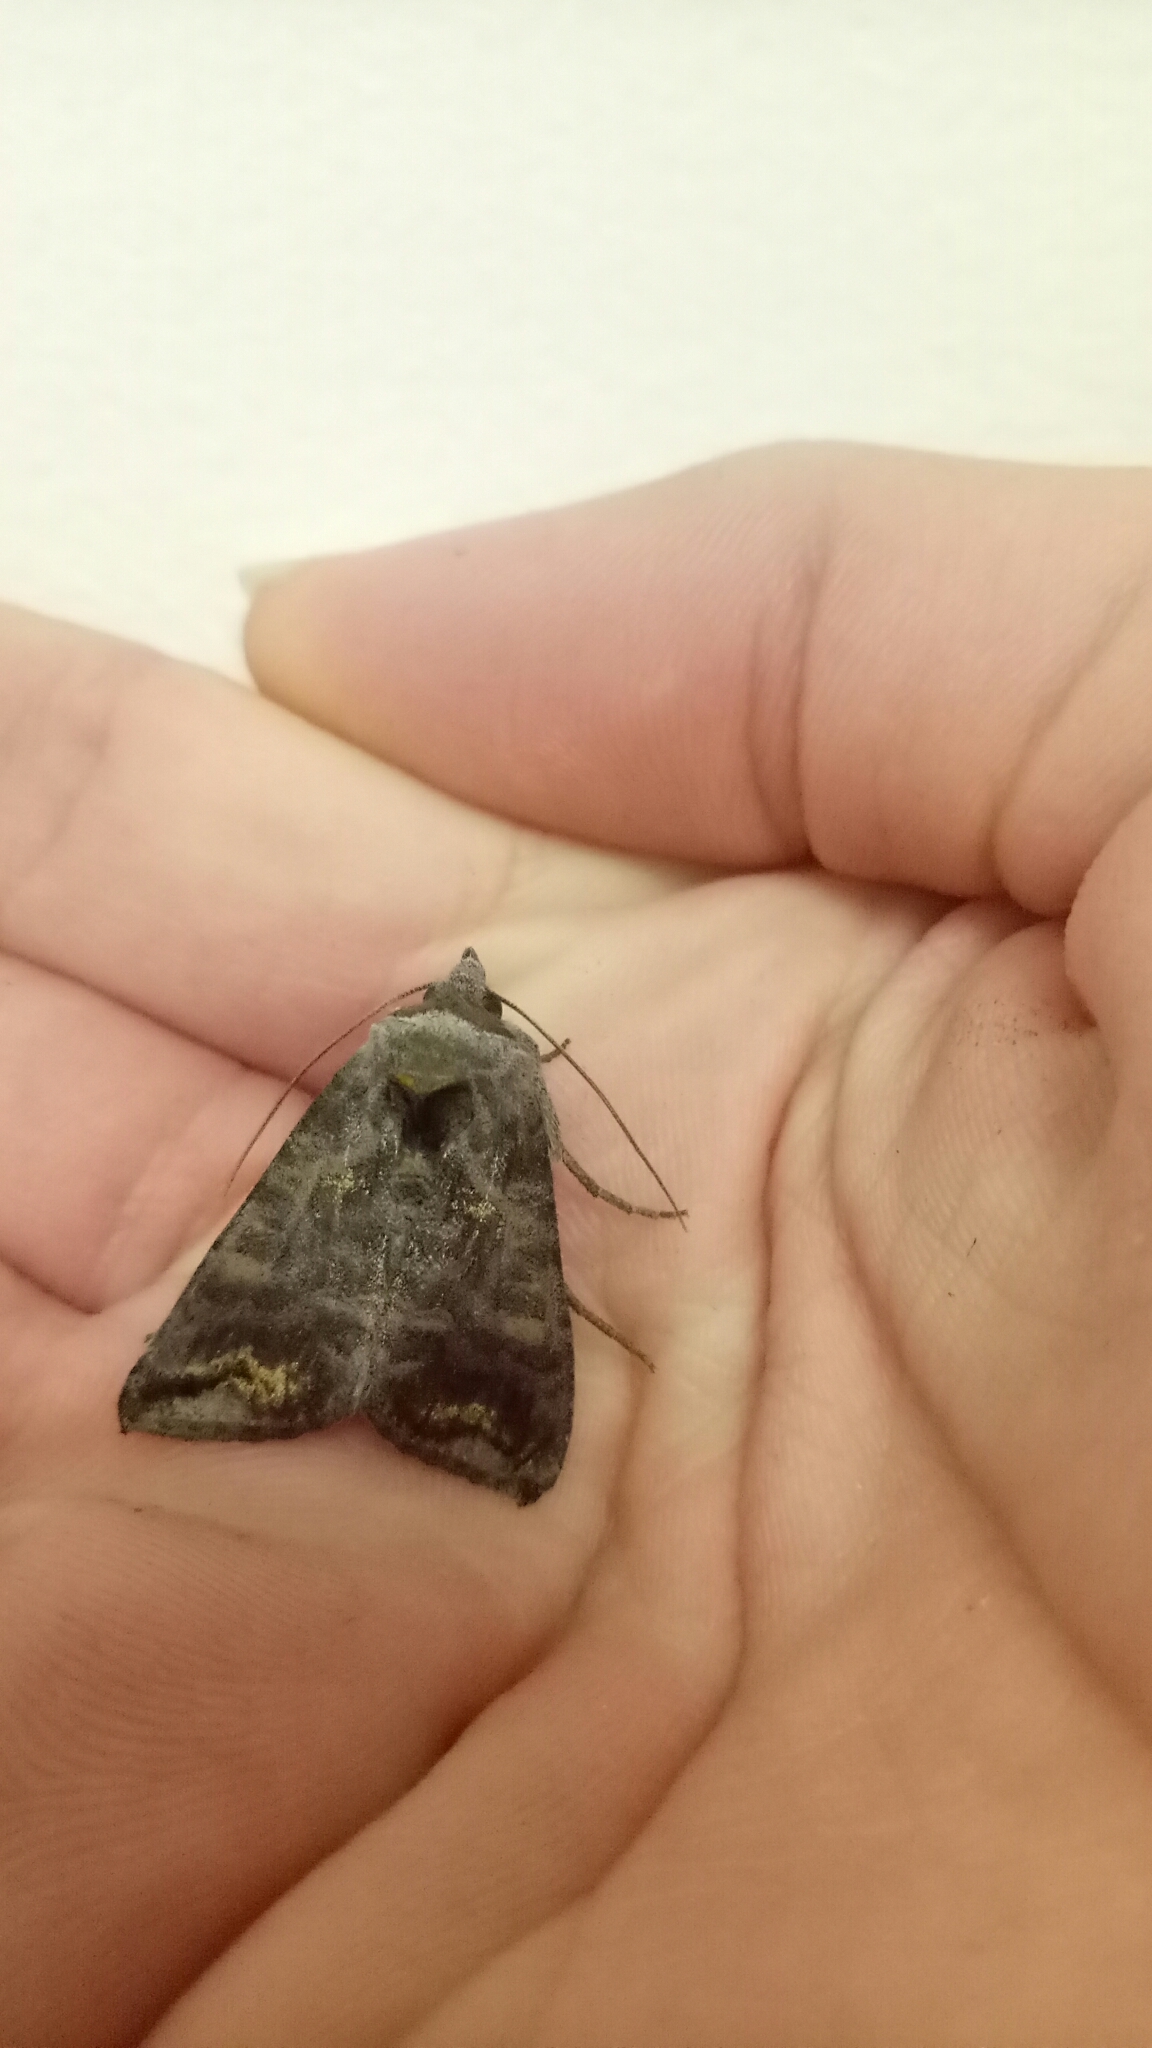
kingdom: Animalia
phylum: Arthropoda
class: Insecta
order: Lepidoptera
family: Noctuidae
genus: Anadevidia
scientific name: Anadevidia peponis
